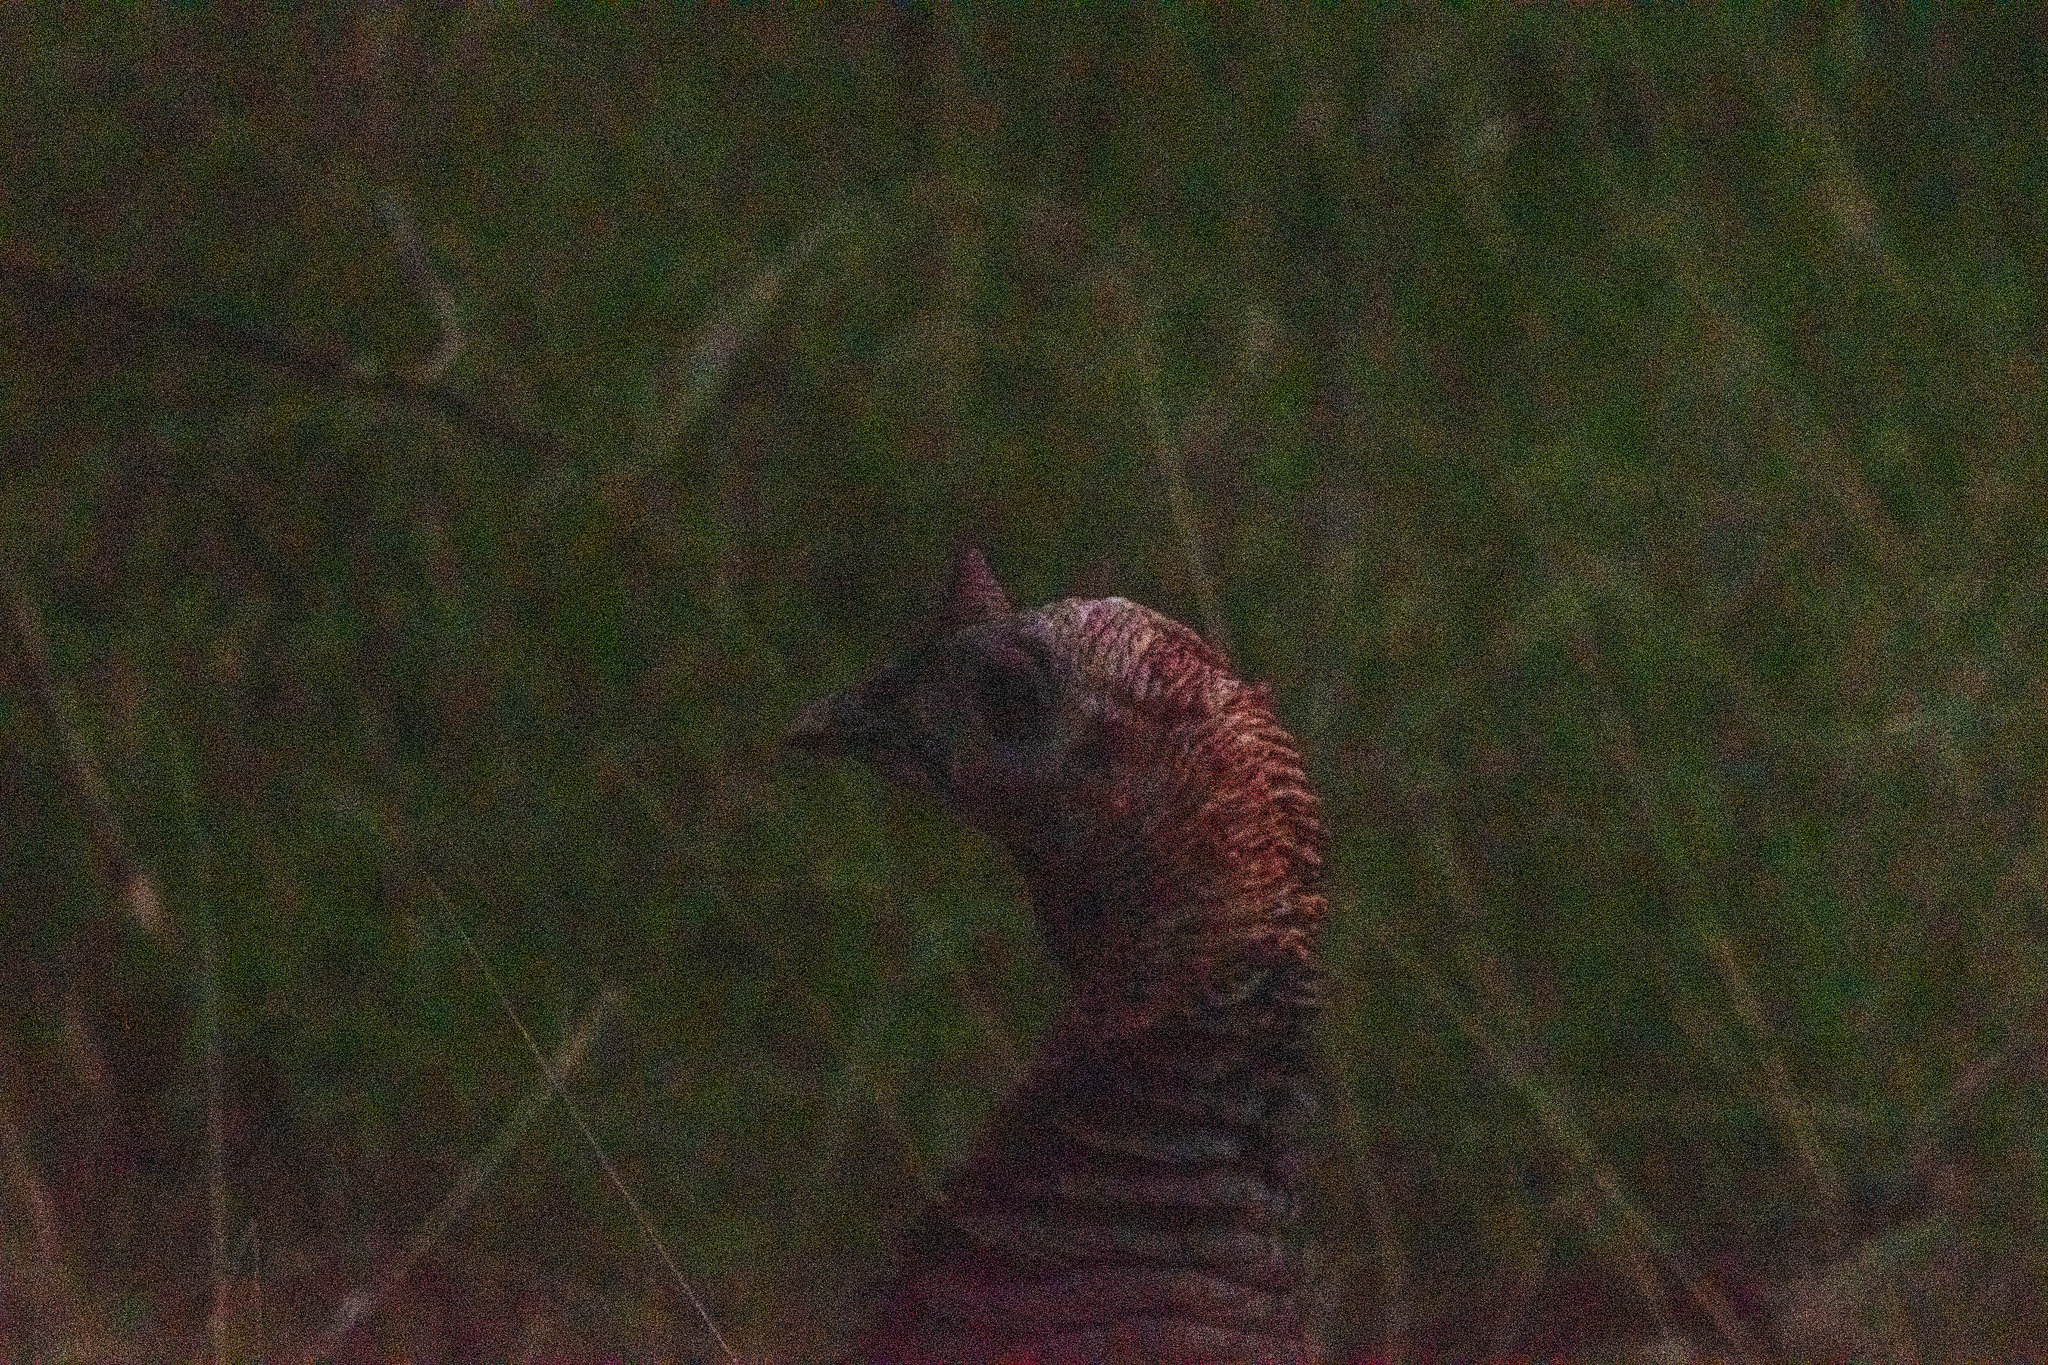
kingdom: Animalia
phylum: Chordata
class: Aves
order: Galliformes
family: Phasianidae
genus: Meleagris
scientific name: Meleagris gallopavo
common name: Wild turkey
